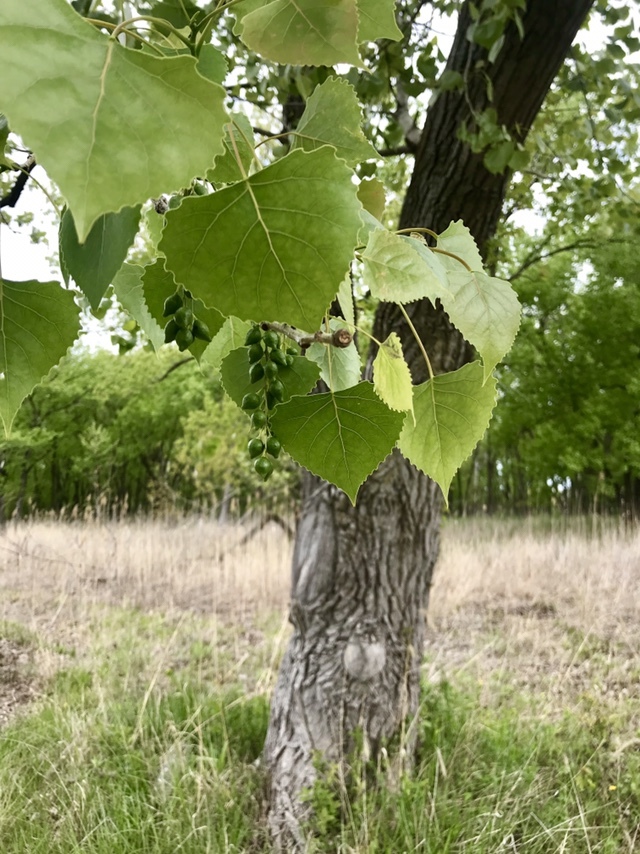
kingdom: Plantae
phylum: Tracheophyta
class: Magnoliopsida
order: Malpighiales
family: Salicaceae
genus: Populus
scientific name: Populus deltoides
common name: Eastern cottonwood
